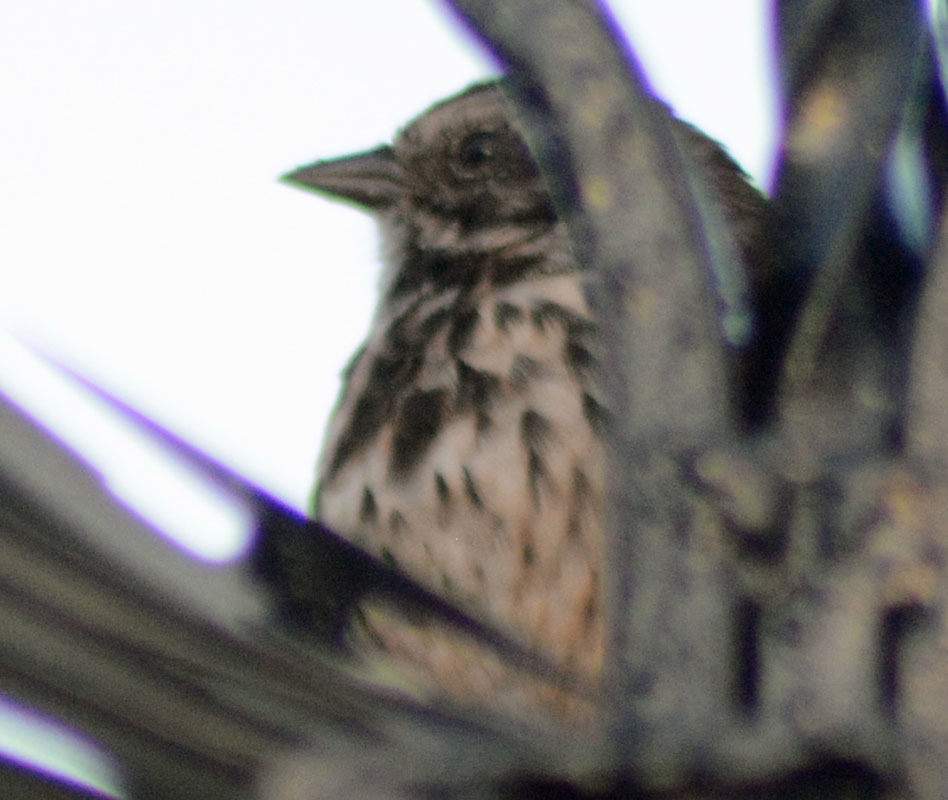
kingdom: Animalia
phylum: Chordata
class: Aves
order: Passeriformes
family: Passerellidae
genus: Melospiza
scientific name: Melospiza melodia
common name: Song sparrow
